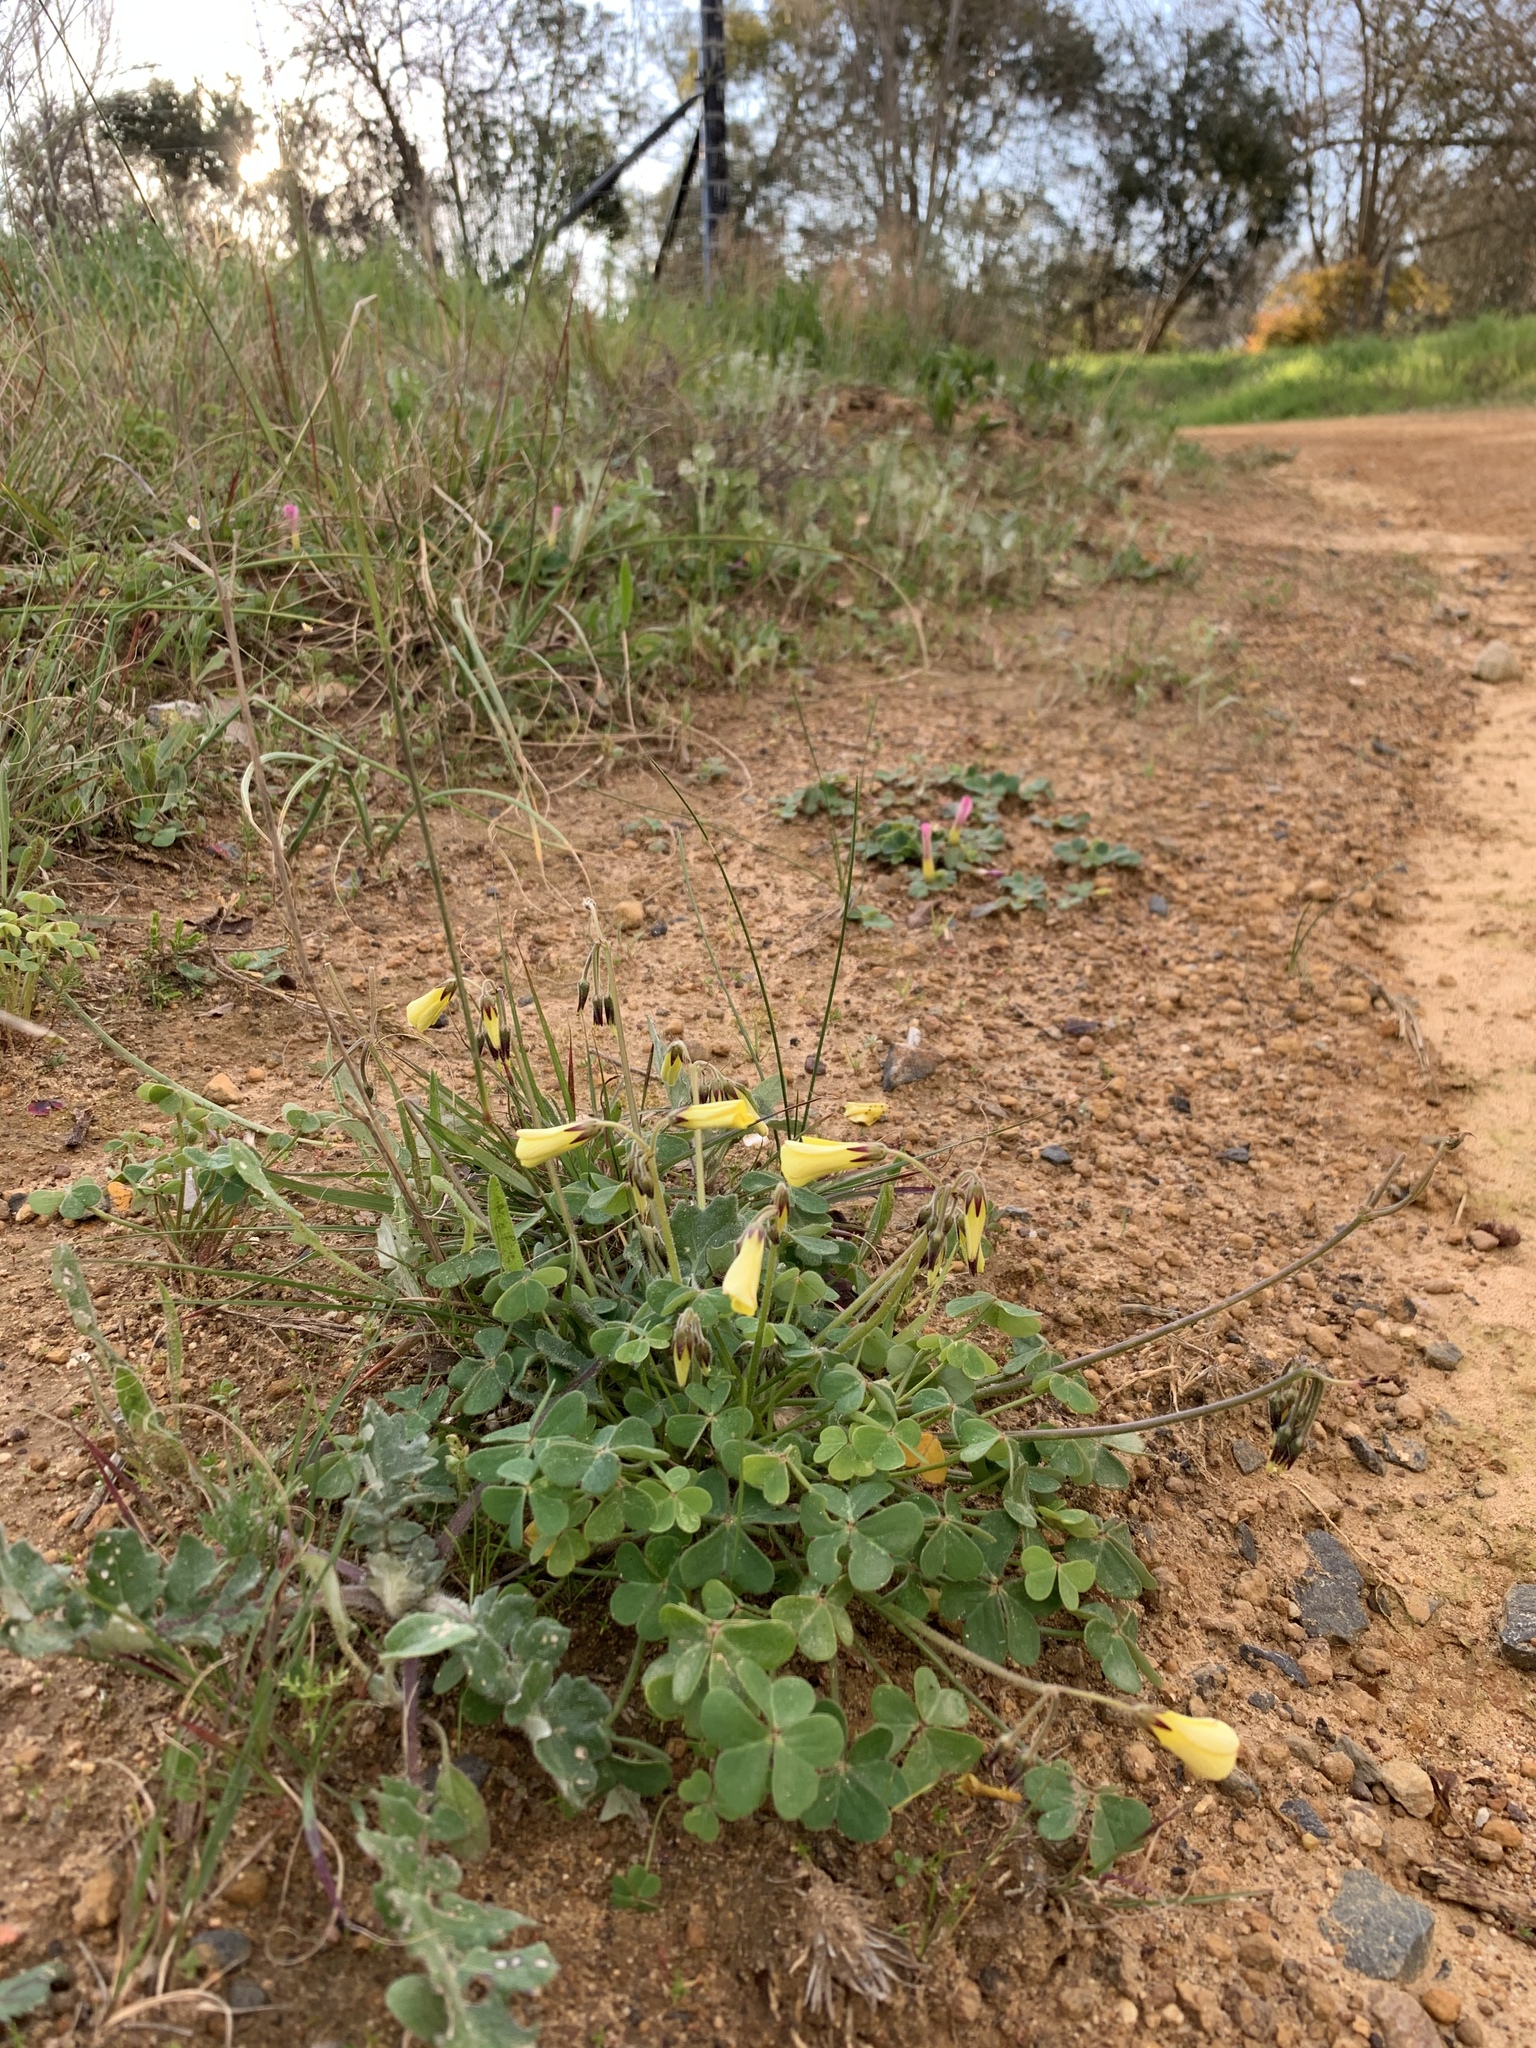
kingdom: Plantae
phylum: Tracheophyta
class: Magnoliopsida
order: Oxalidales
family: Oxalidaceae
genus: Oxalis
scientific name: Oxalis pes-caprae
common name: Bermuda-buttercup
